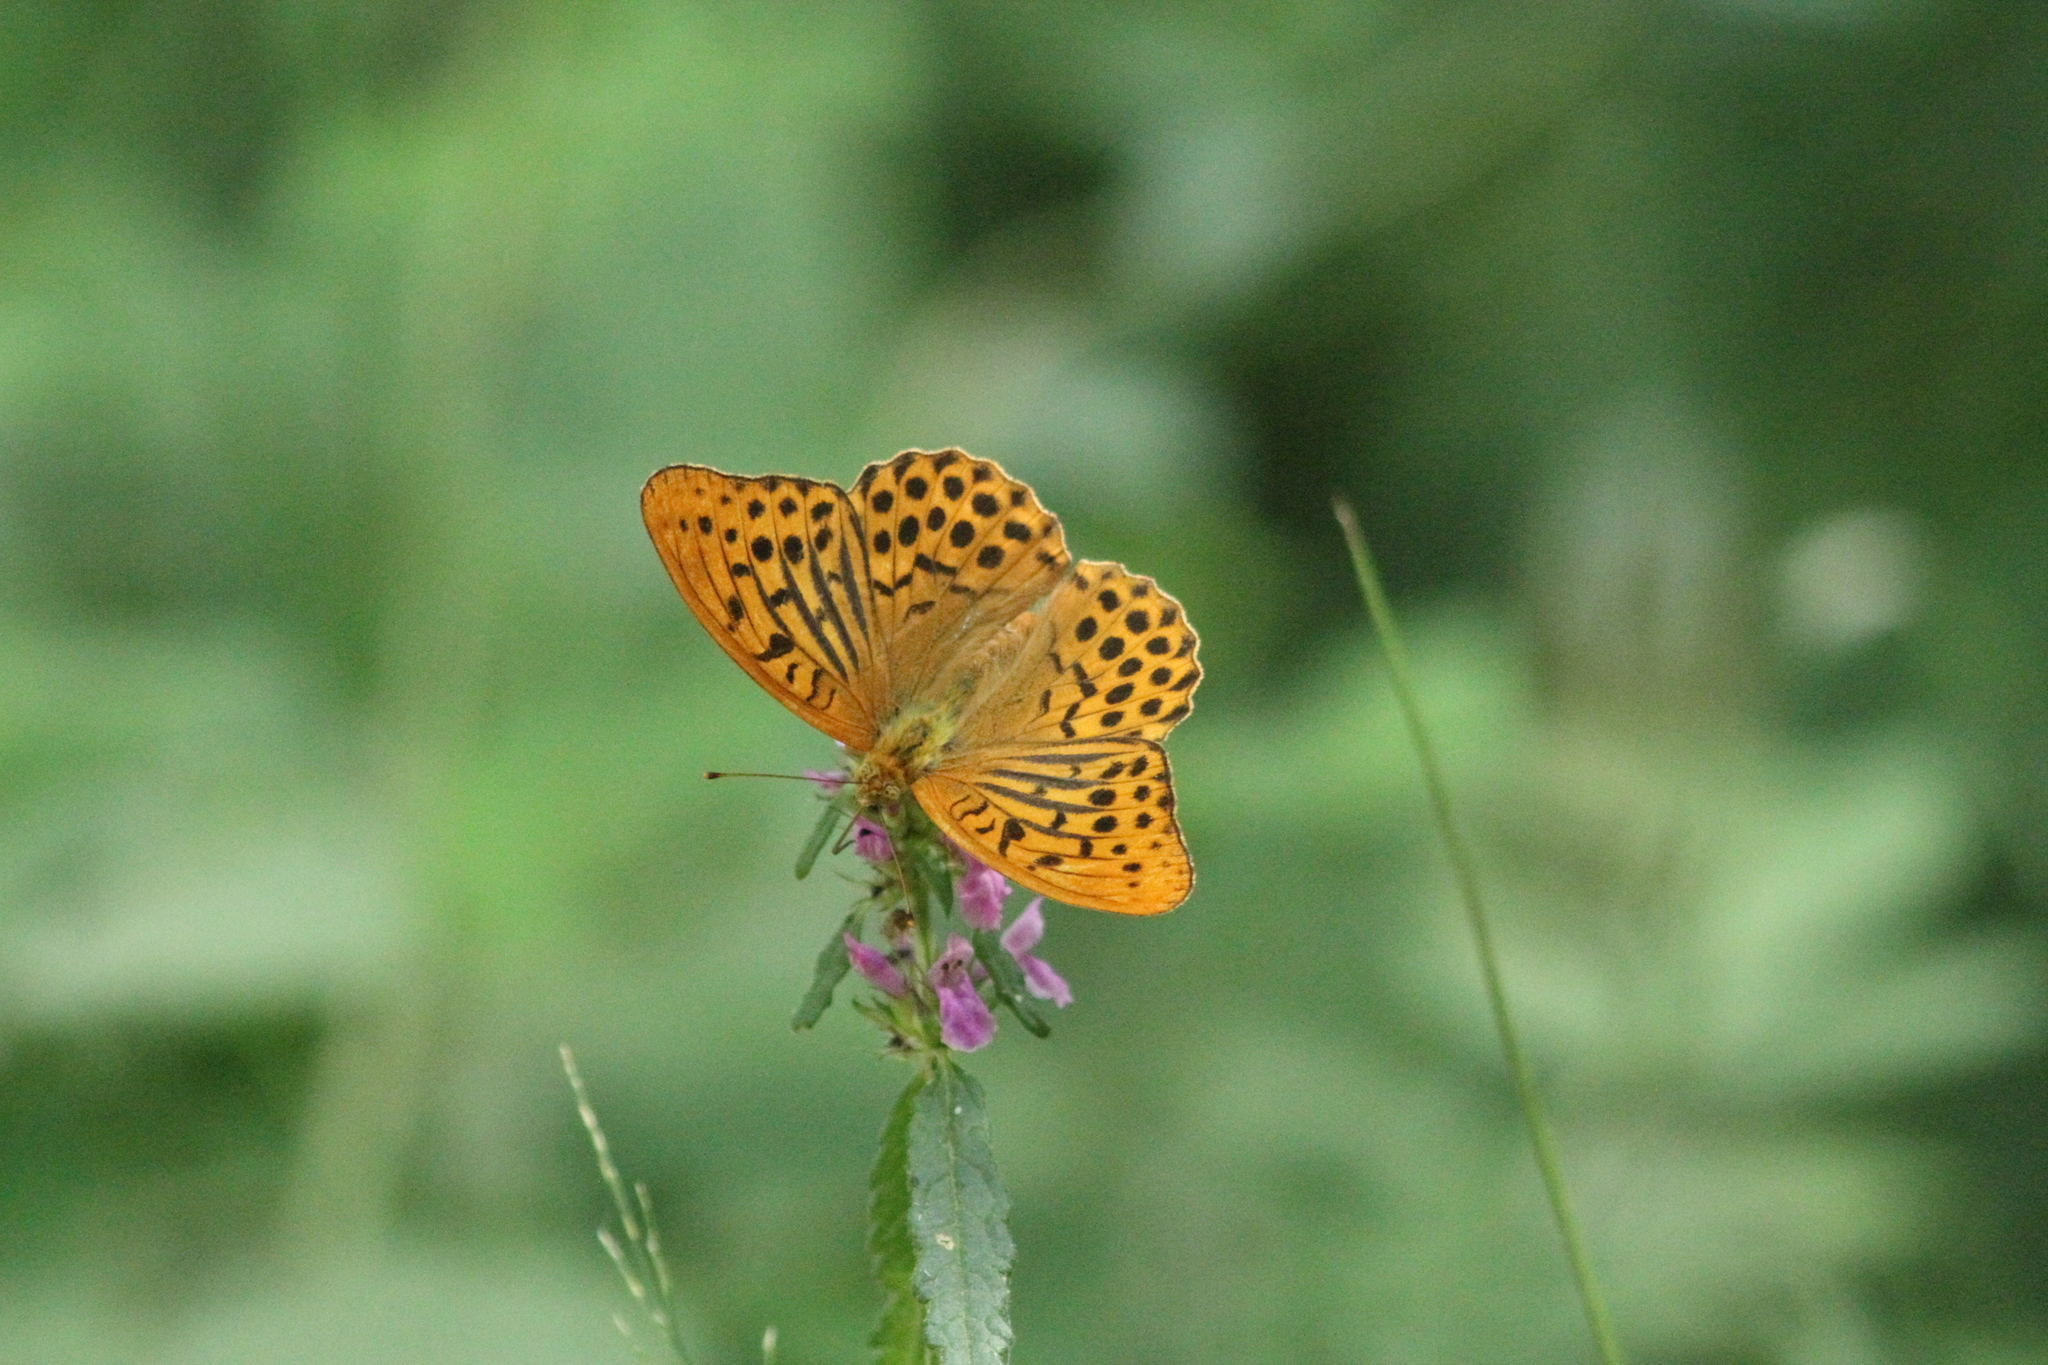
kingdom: Animalia
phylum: Arthropoda
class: Insecta
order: Lepidoptera
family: Nymphalidae
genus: Argynnis
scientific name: Argynnis paphia
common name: Silver-washed fritillary
